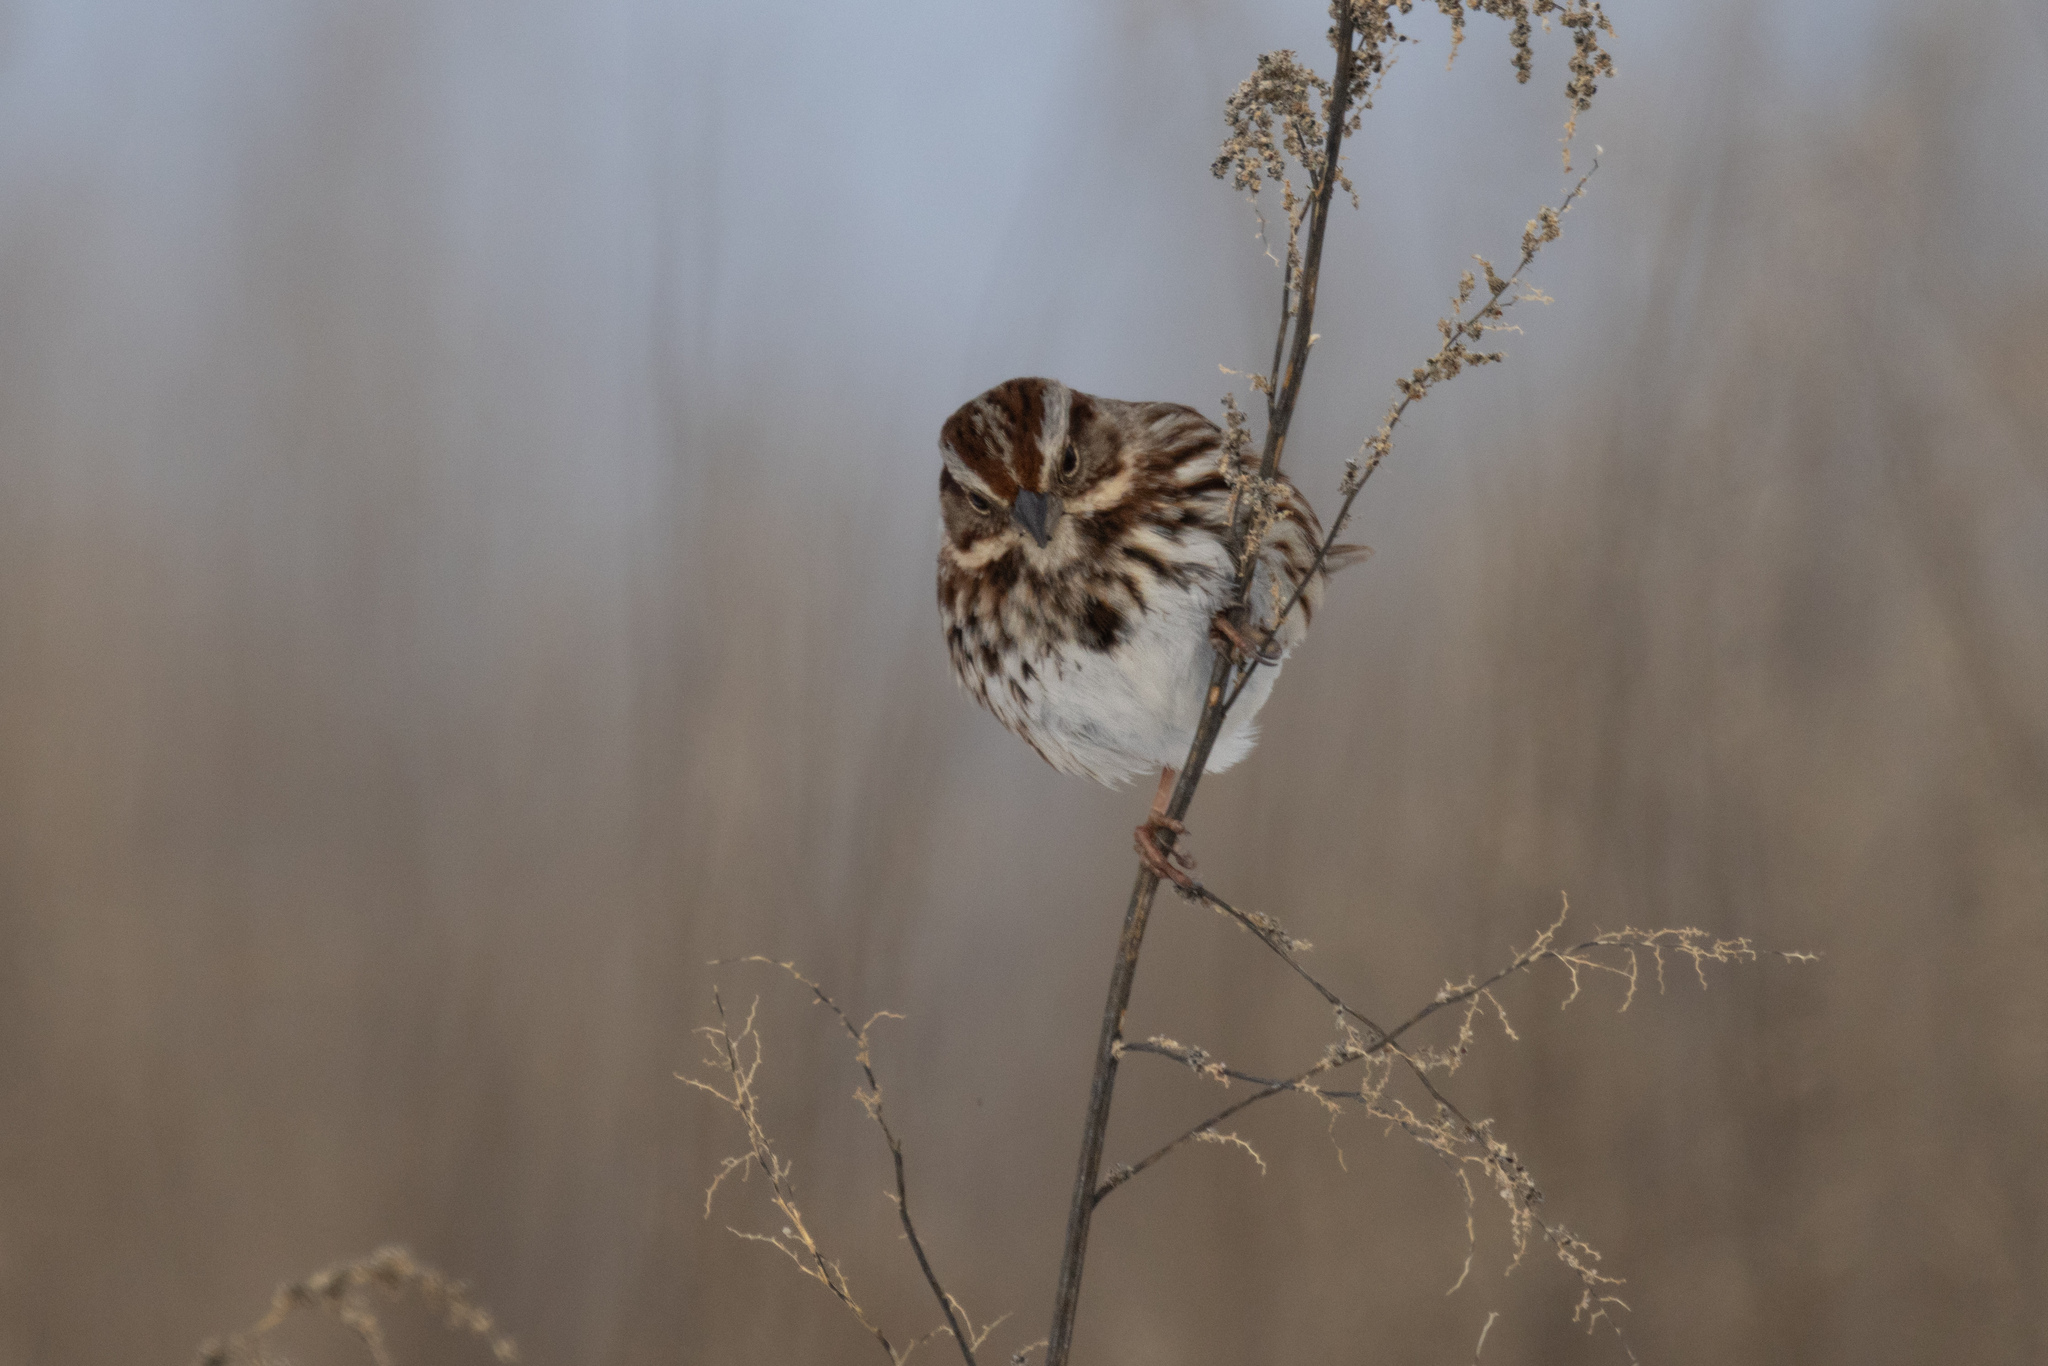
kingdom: Animalia
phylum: Chordata
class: Aves
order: Passeriformes
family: Passerellidae
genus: Melospiza
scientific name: Melospiza melodia
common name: Song sparrow
